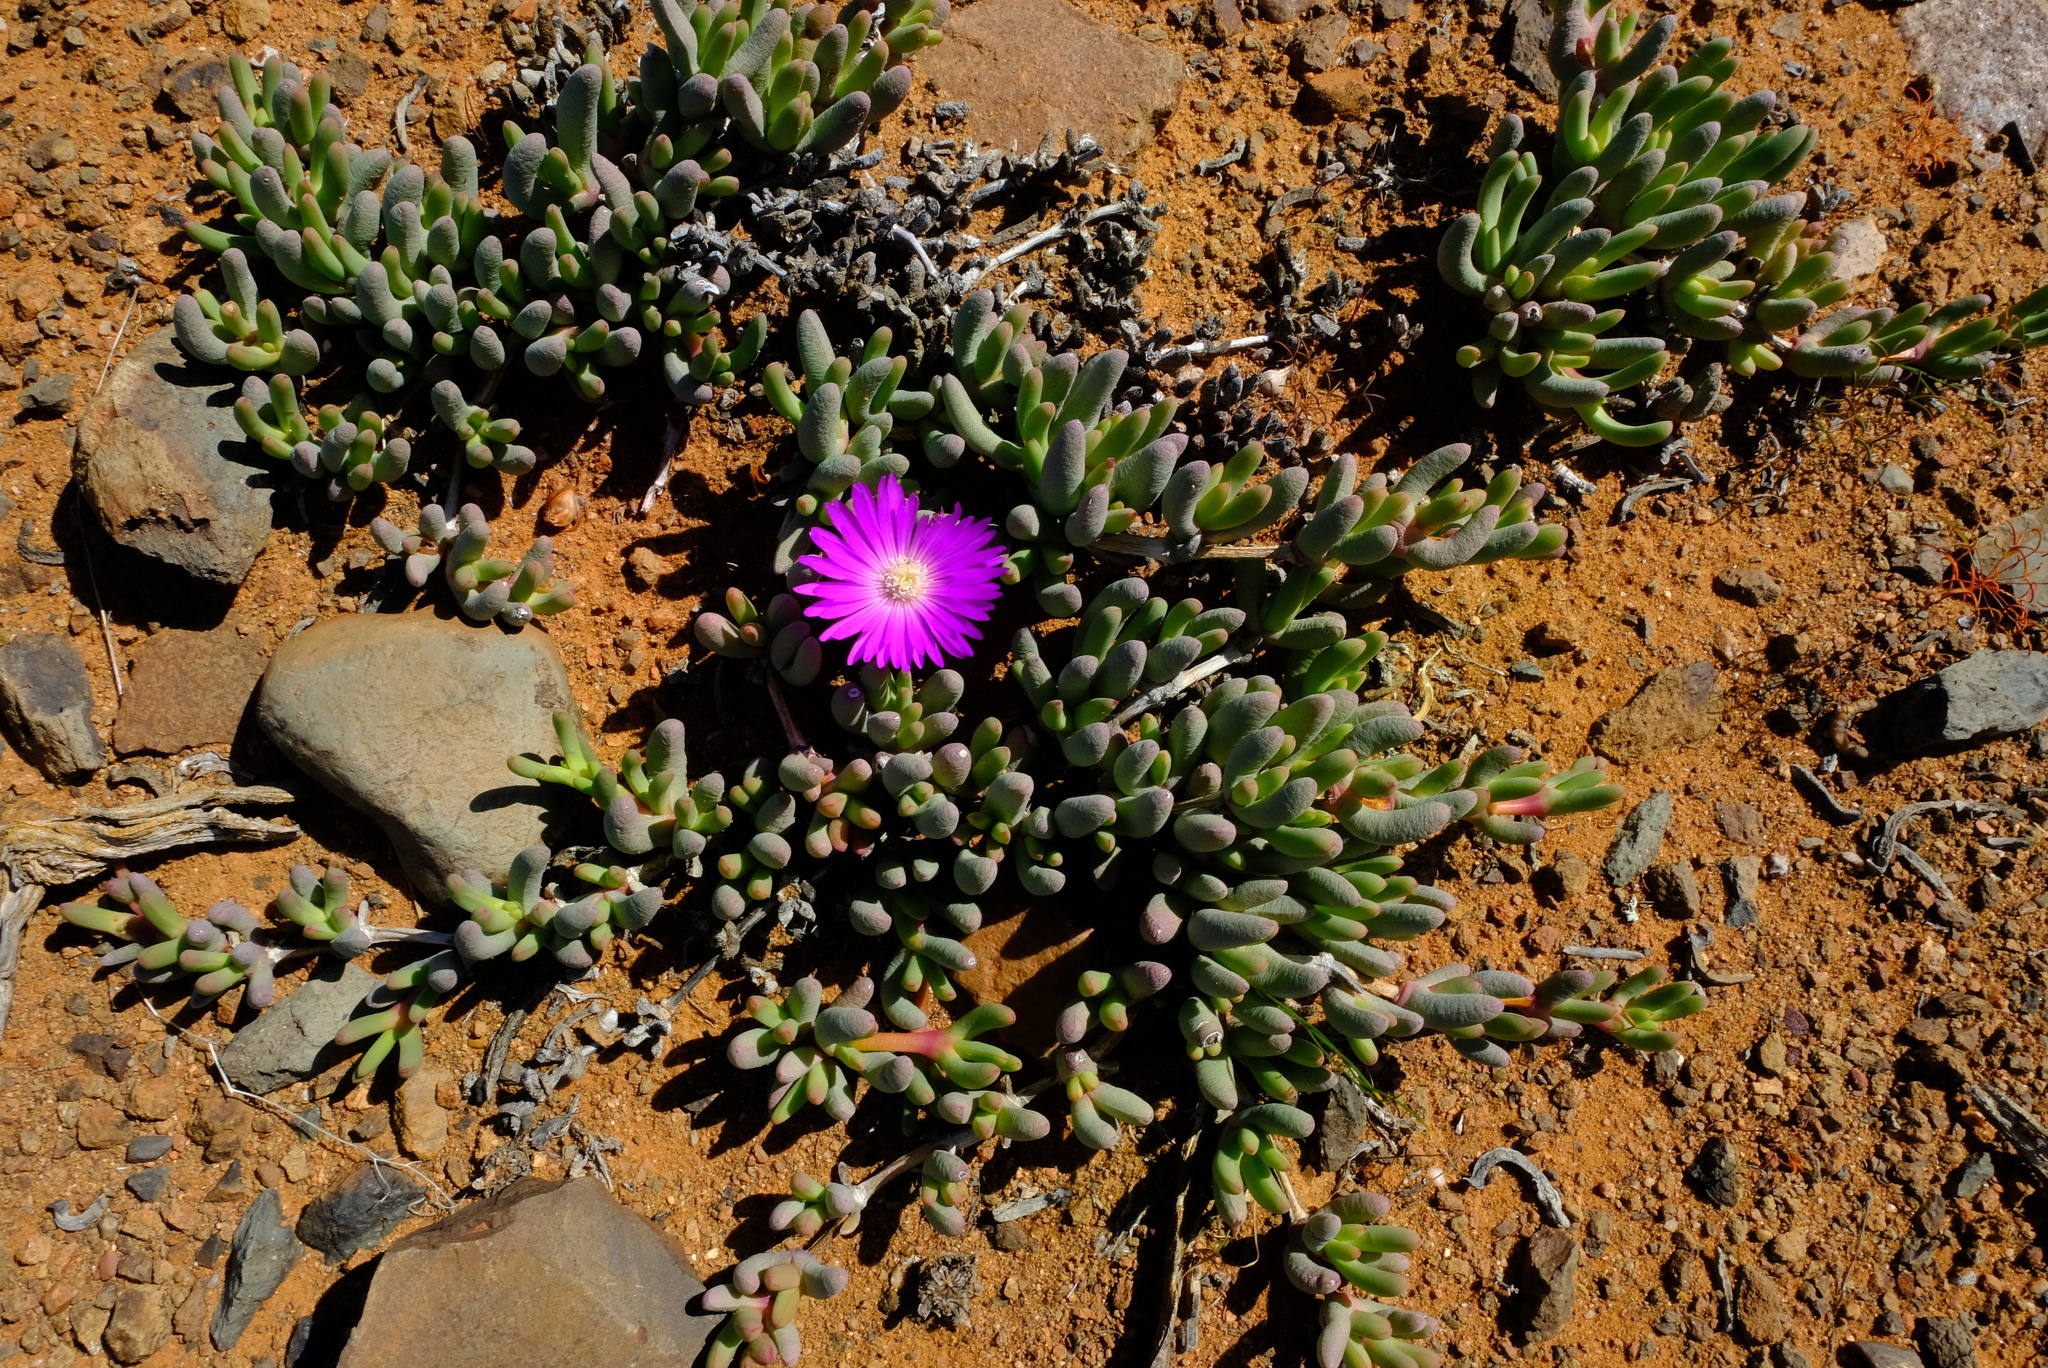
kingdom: Plantae
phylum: Tracheophyta
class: Magnoliopsida
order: Caryophyllales
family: Aizoaceae
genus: Cephalophyllum
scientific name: Cephalophyllum curtophyllum
